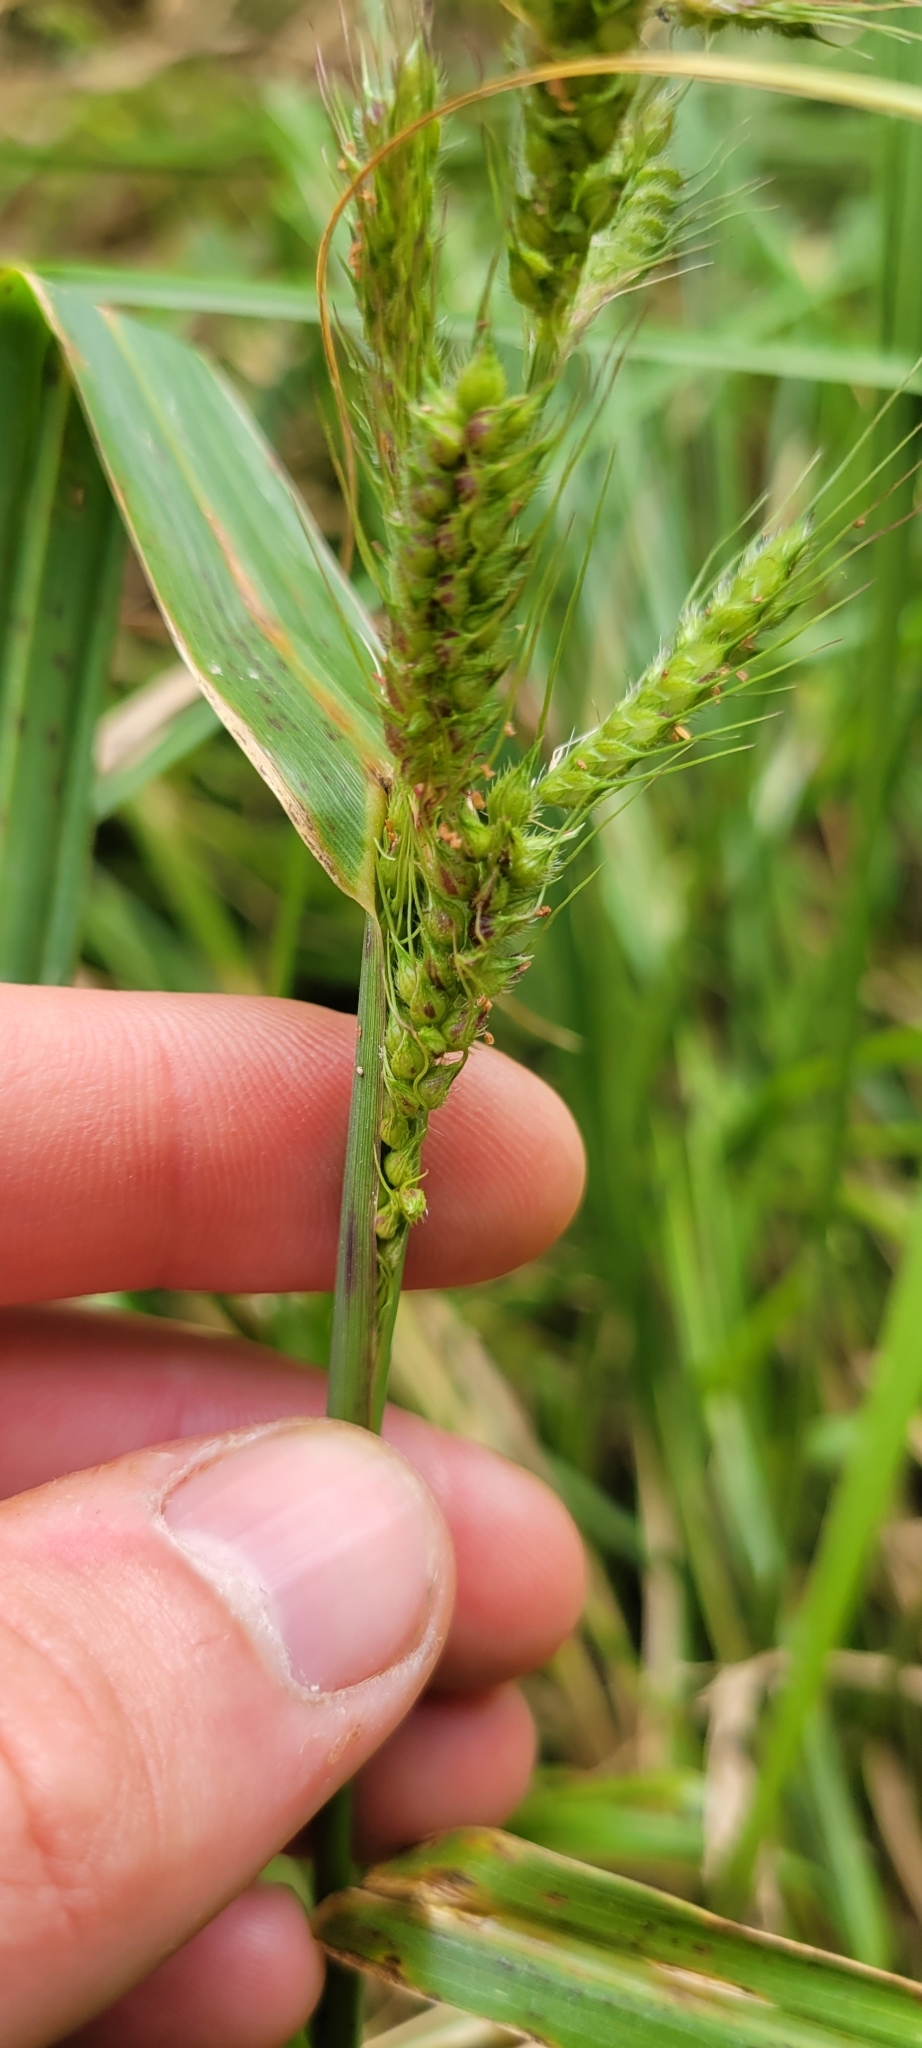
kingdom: Plantae
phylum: Tracheophyta
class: Liliopsida
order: Poales
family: Poaceae
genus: Echinochloa
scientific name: Echinochloa crus-galli
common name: Cockspur
